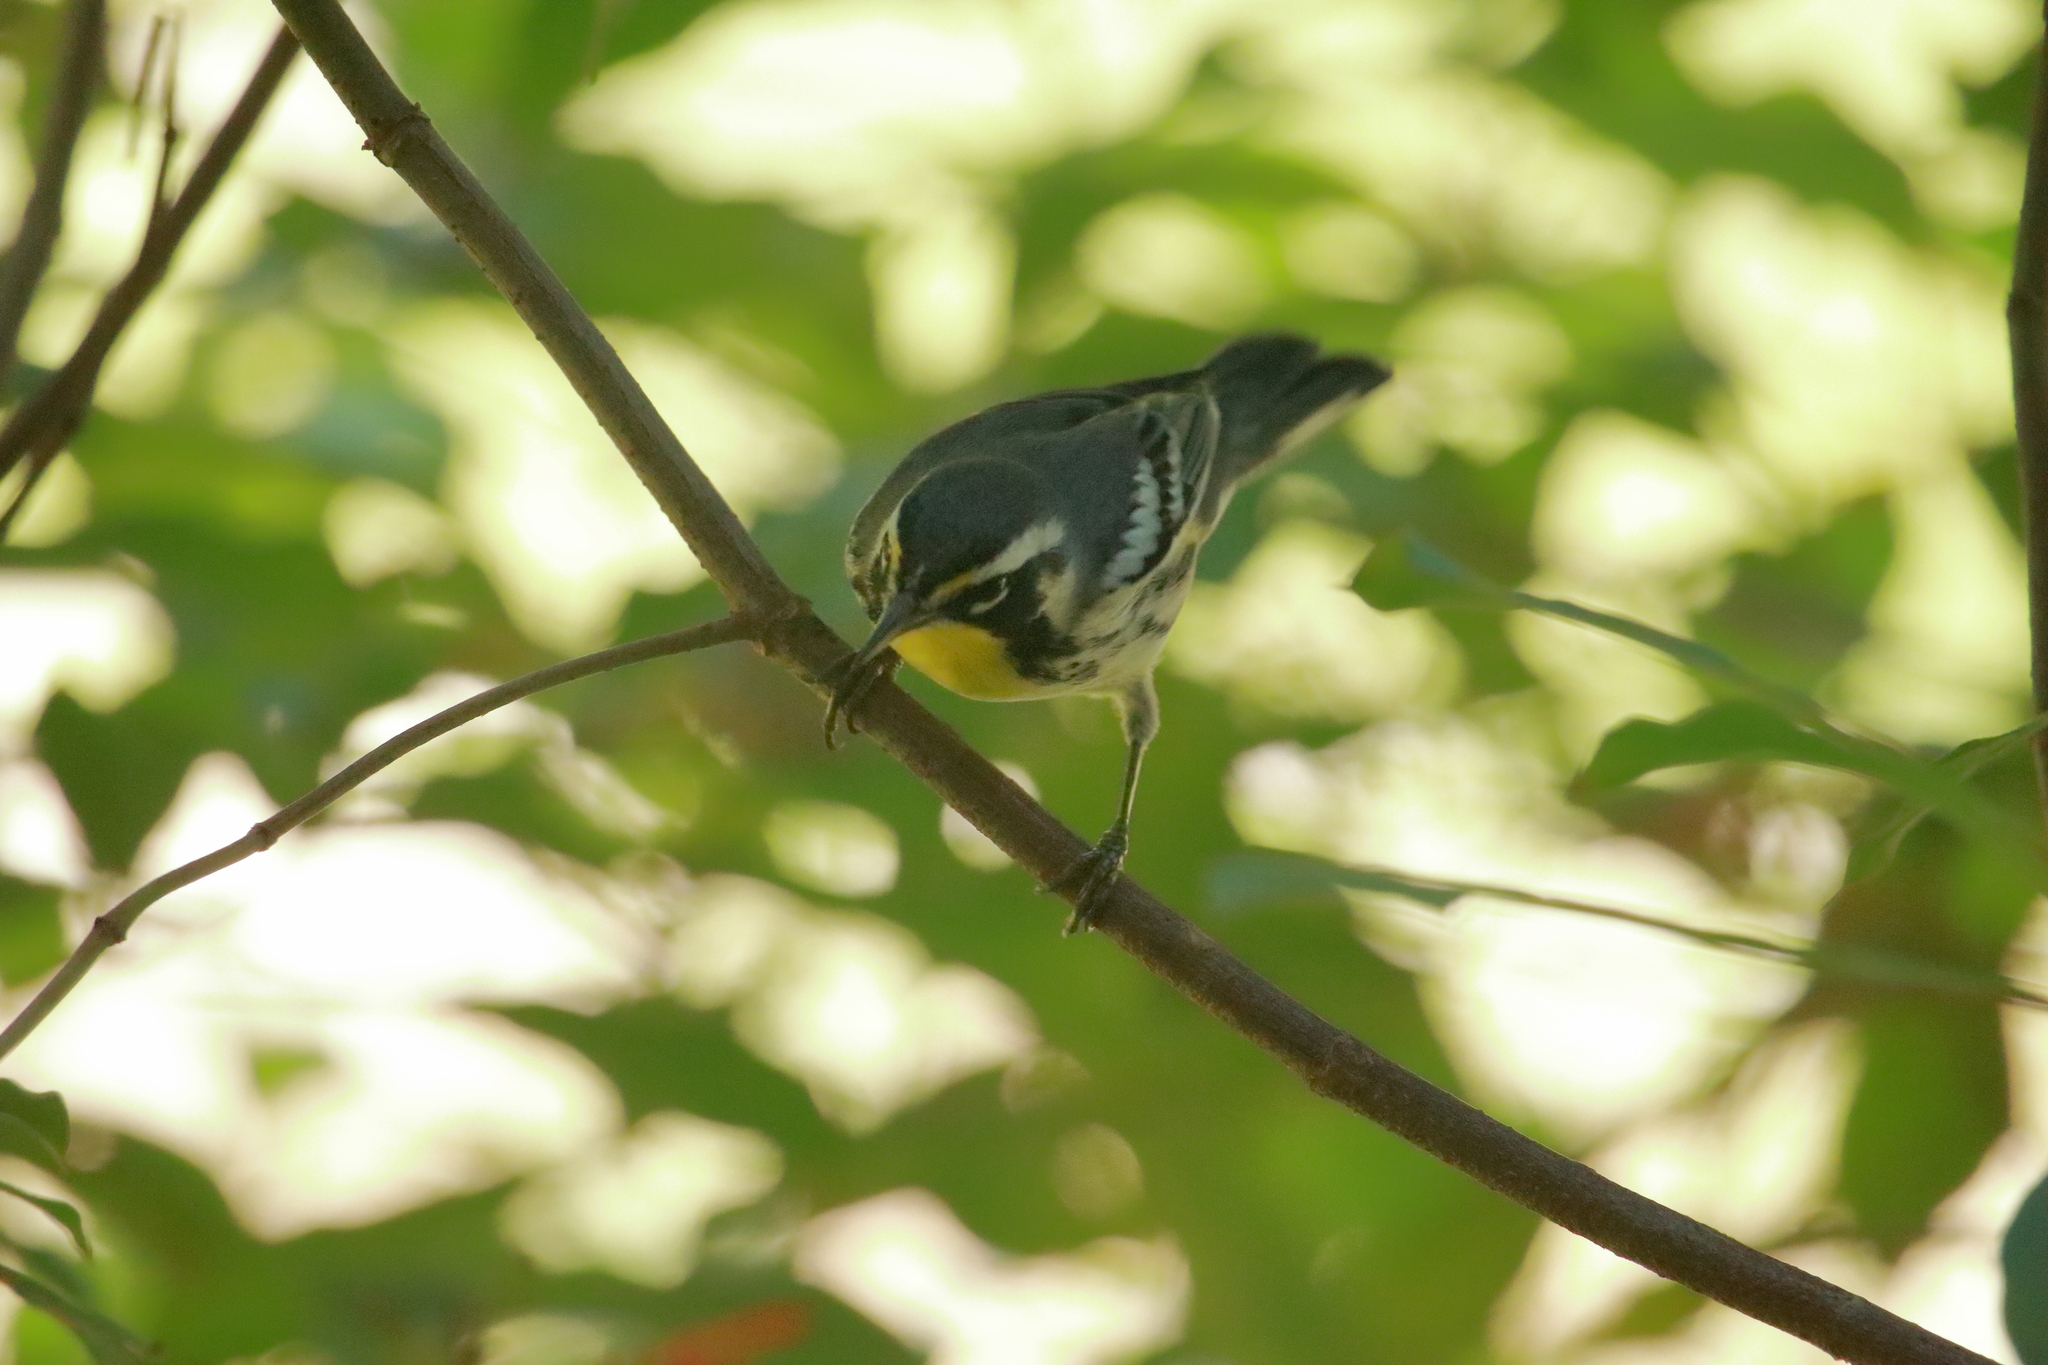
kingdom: Animalia
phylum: Chordata
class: Aves
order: Passeriformes
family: Parulidae
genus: Setophaga
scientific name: Setophaga dominica
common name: Yellow-throated warbler
